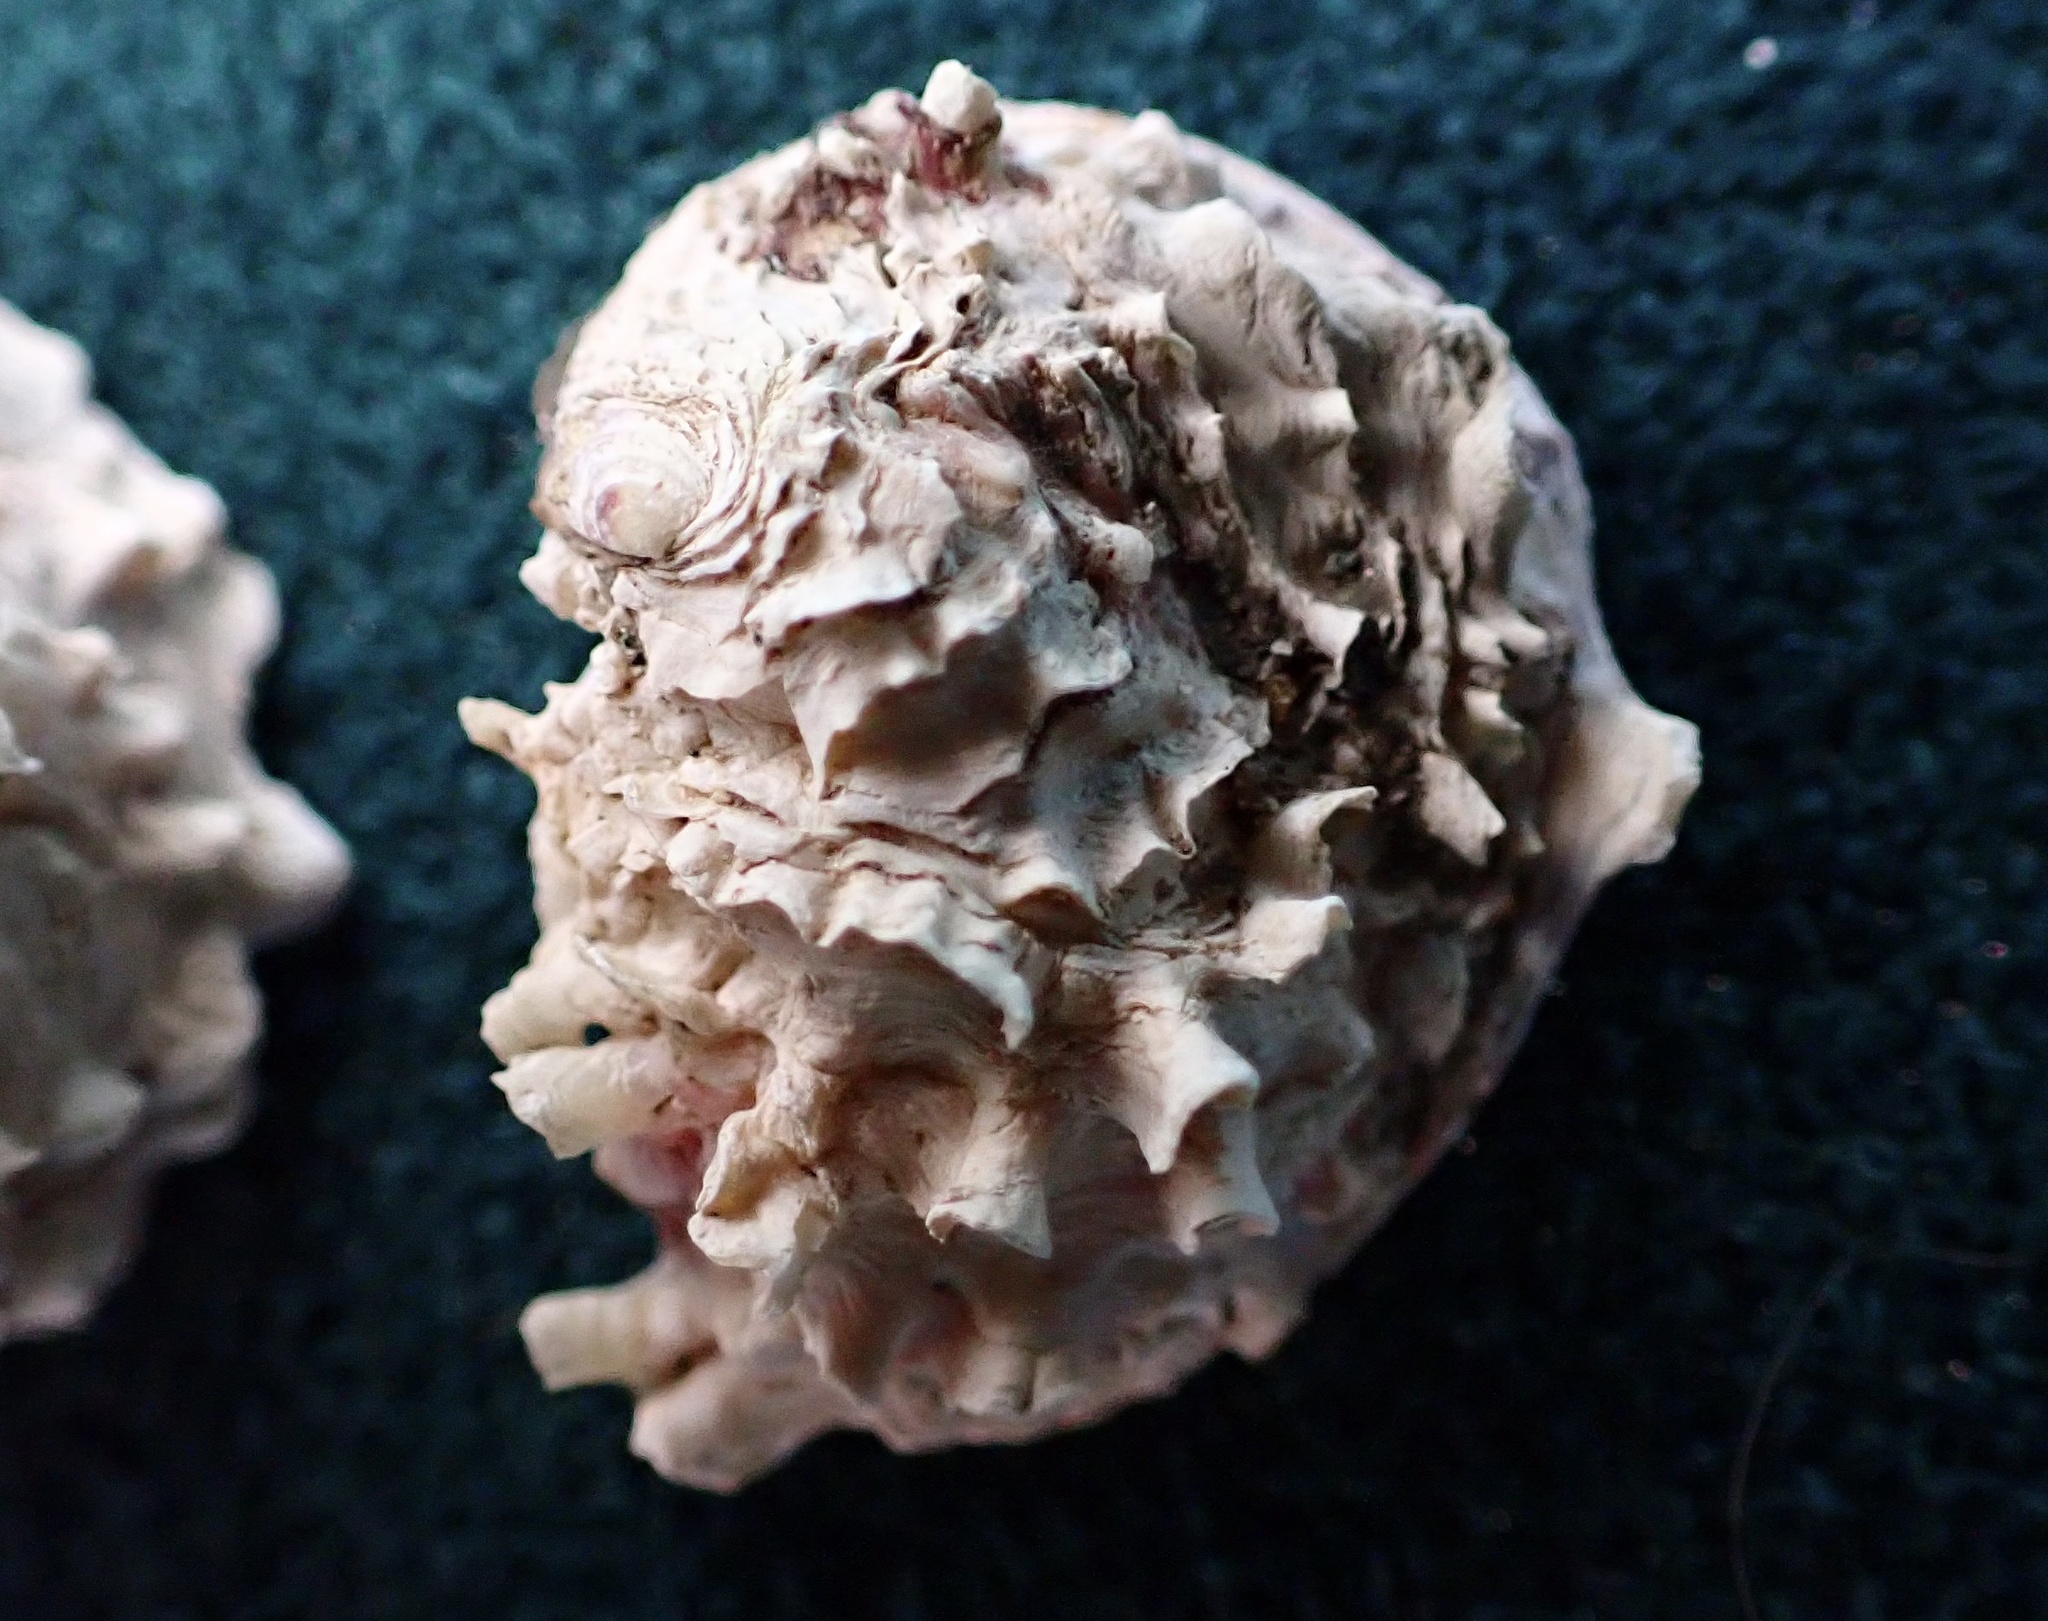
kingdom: Animalia
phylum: Mollusca
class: Bivalvia
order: Venerida
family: Chamidae
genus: Pseudochama
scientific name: Pseudochama exogyra
